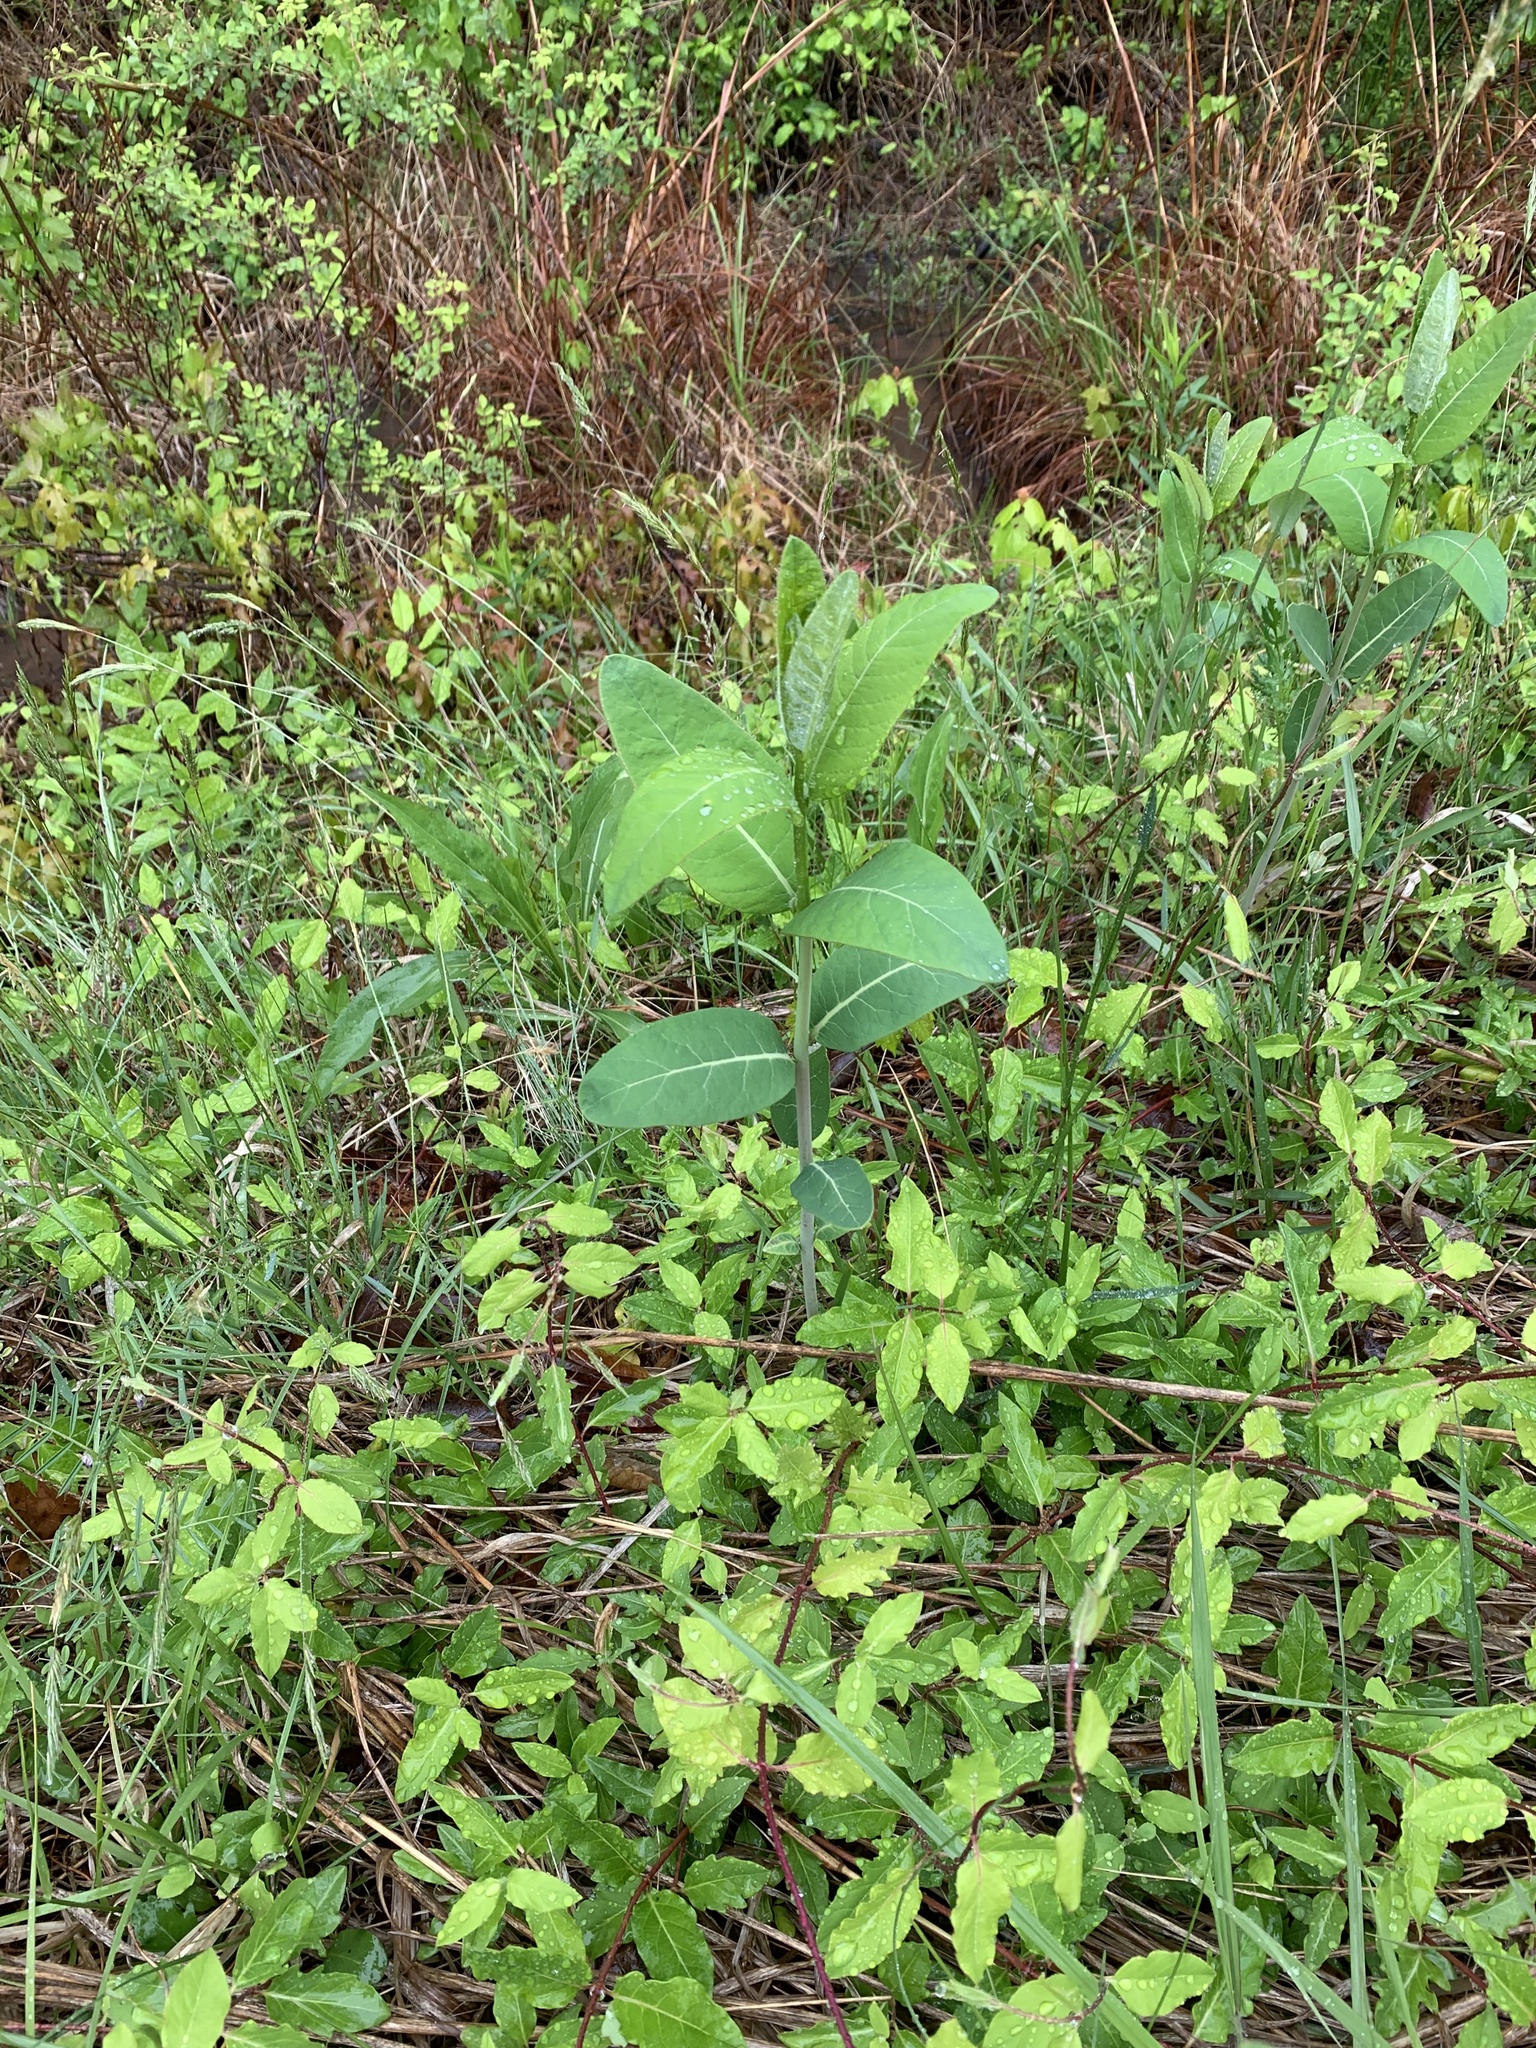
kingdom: Plantae
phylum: Tracheophyta
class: Magnoliopsida
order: Gentianales
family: Apocynaceae
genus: Apocynum
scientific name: Apocynum cannabinum
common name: Hemp dogbane
